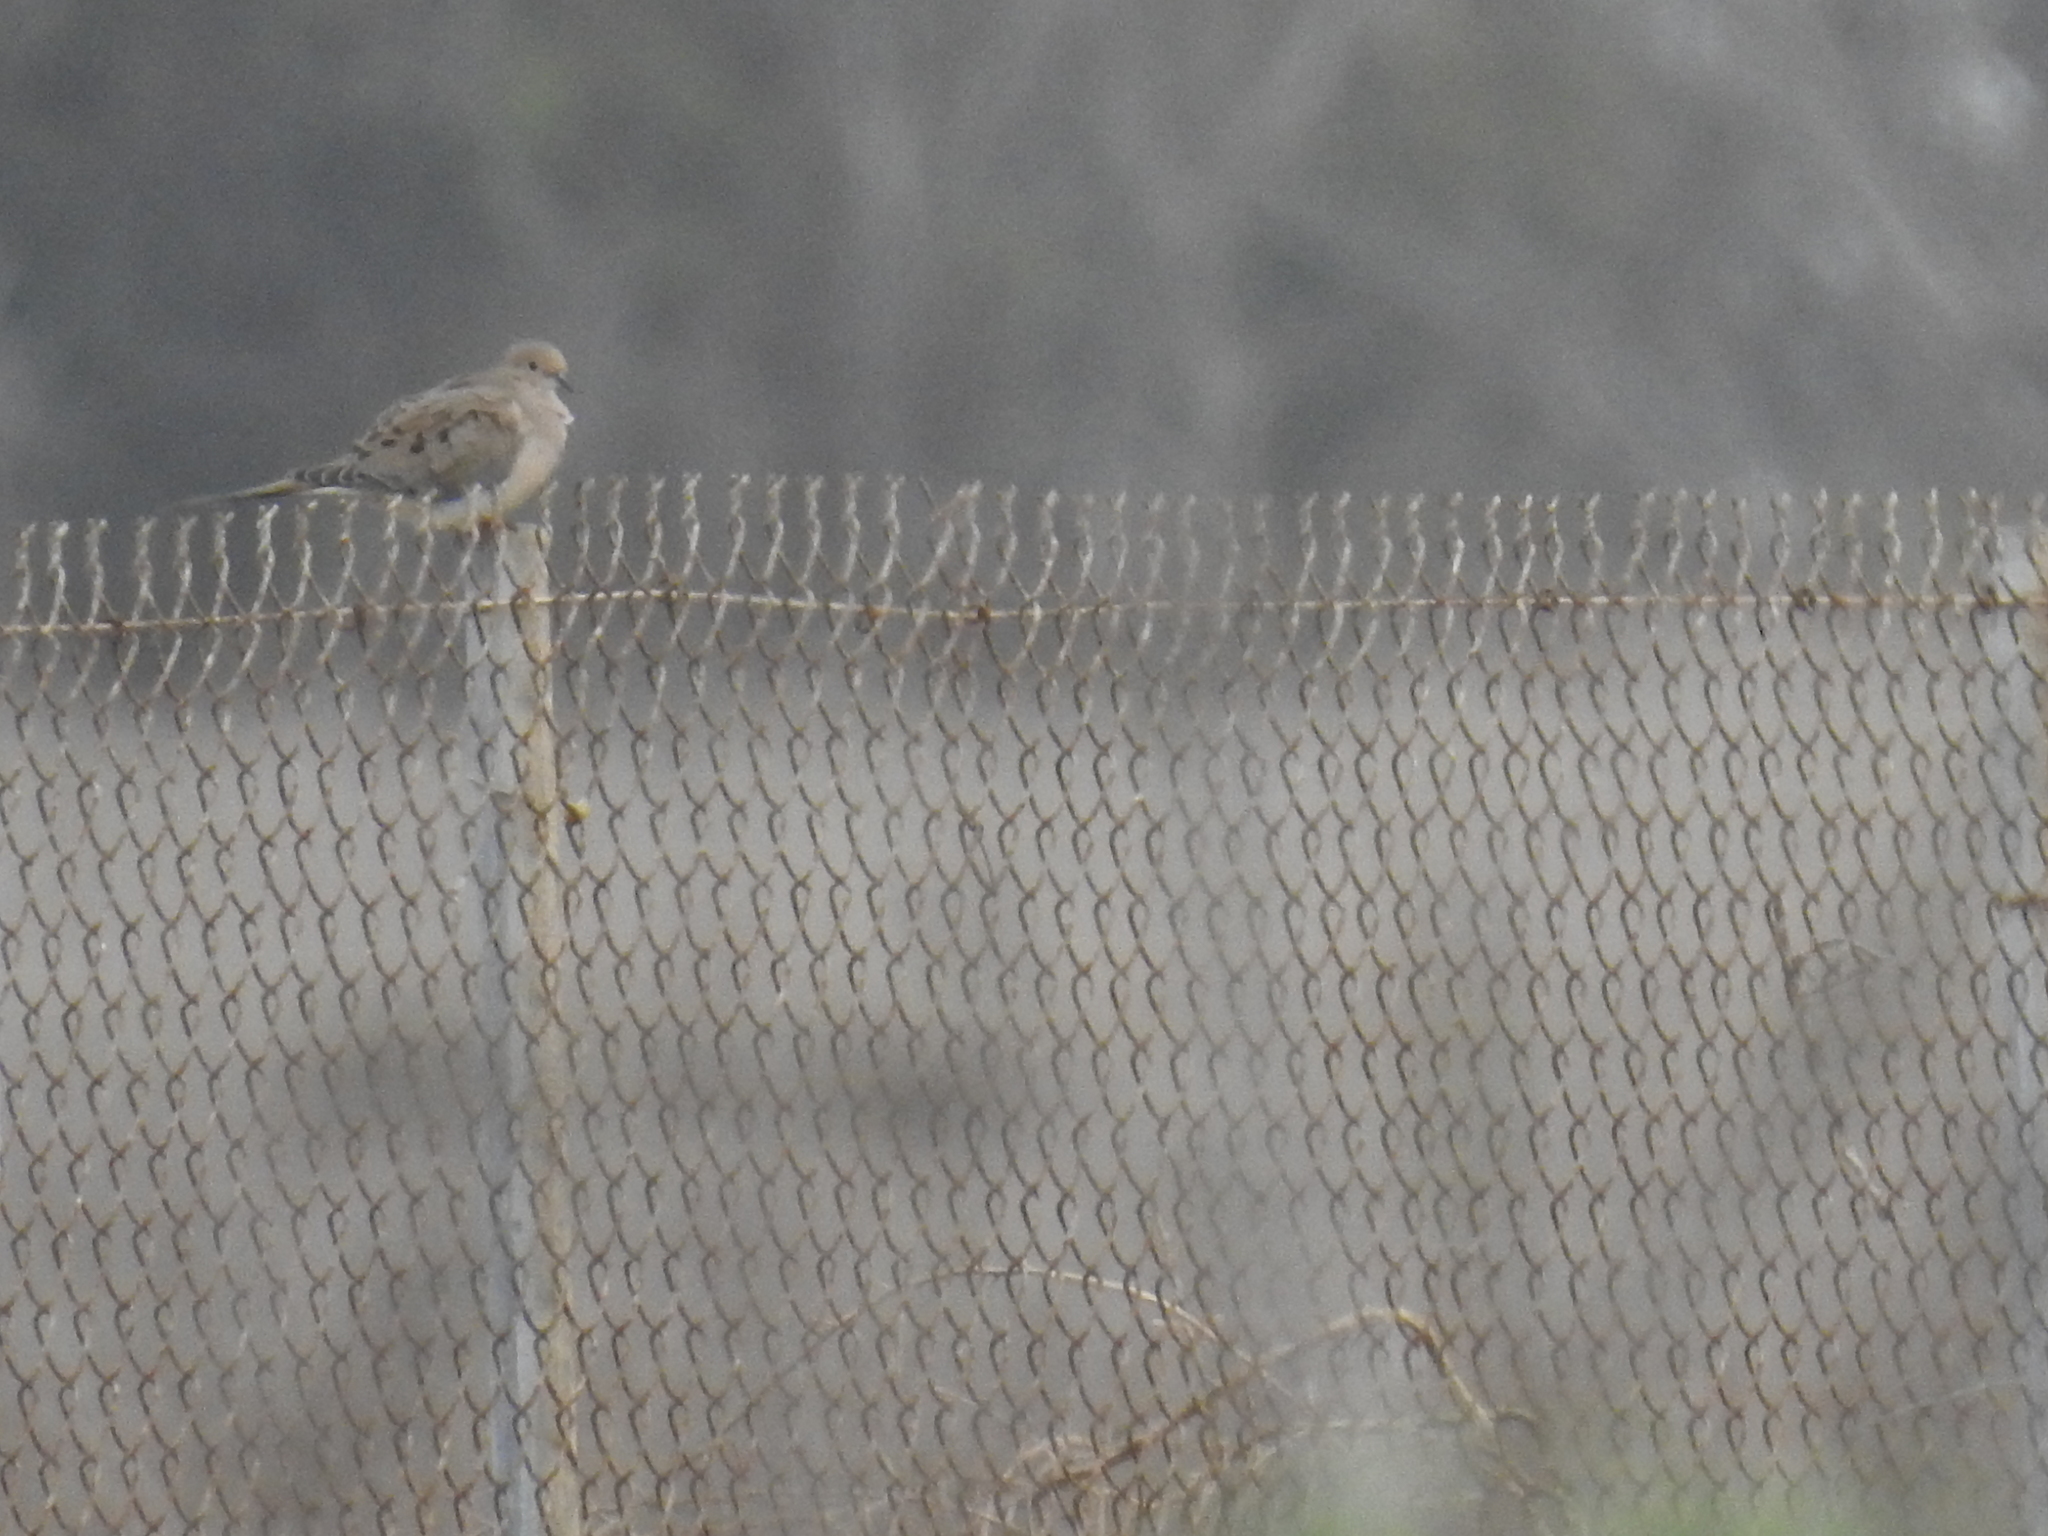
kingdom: Animalia
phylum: Chordata
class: Aves
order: Columbiformes
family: Columbidae
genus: Zenaida
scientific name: Zenaida macroura
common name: Mourning dove
